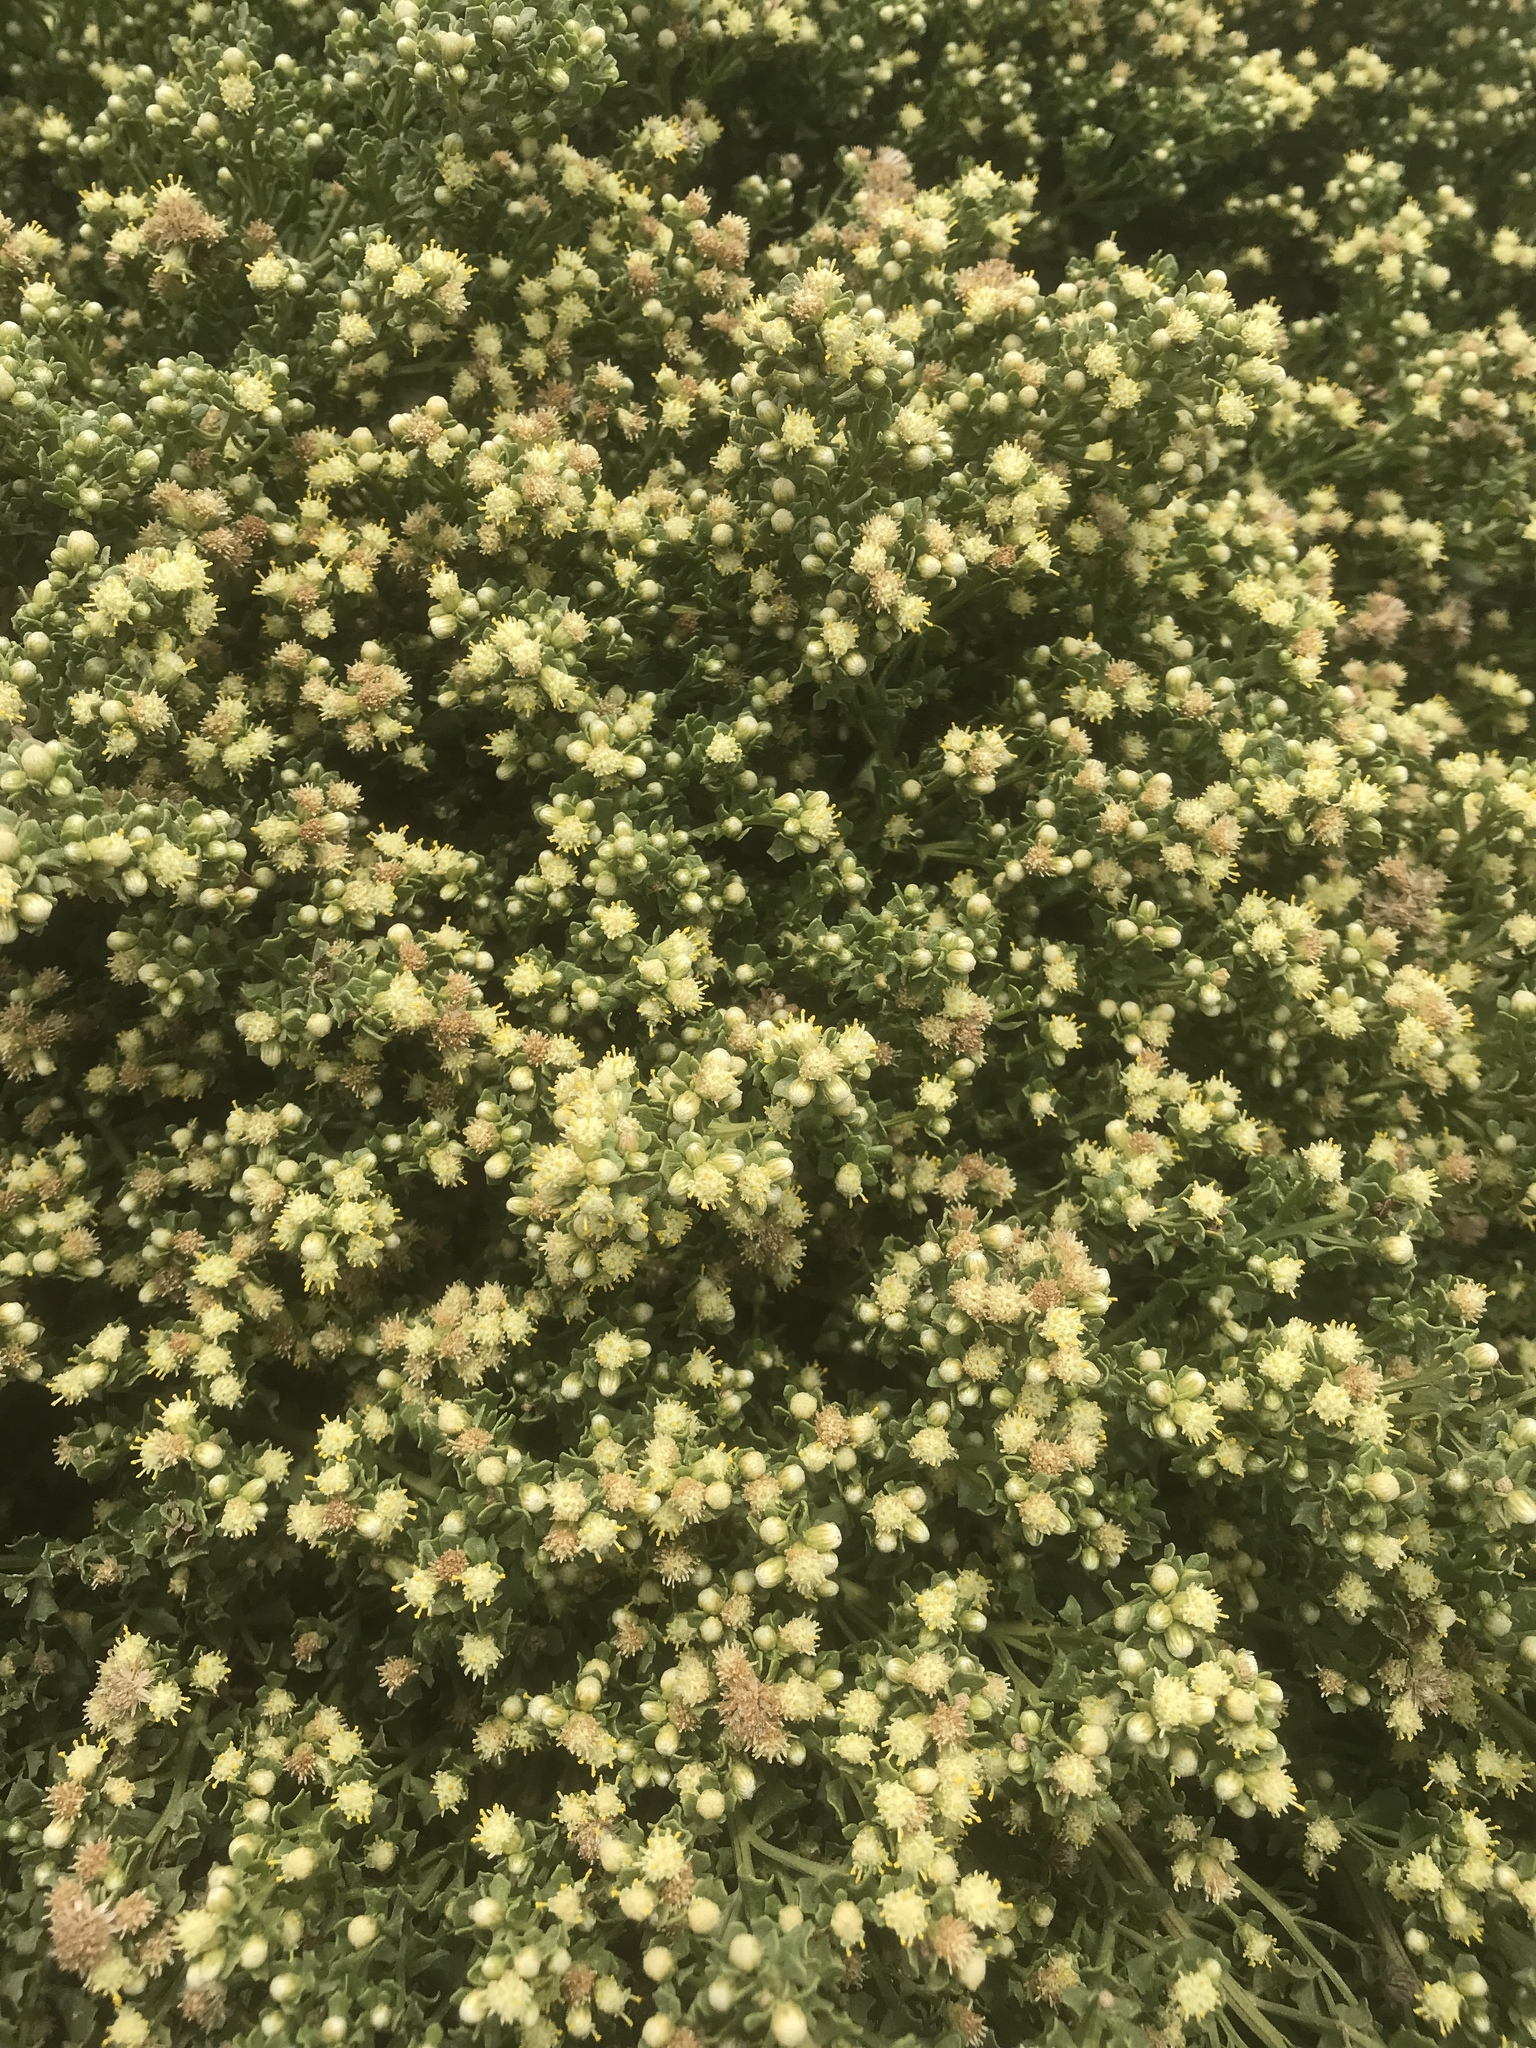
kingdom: Plantae
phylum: Tracheophyta
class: Magnoliopsida
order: Asterales
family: Asteraceae
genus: Baccharis
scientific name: Baccharis pilularis
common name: Coyotebrush
